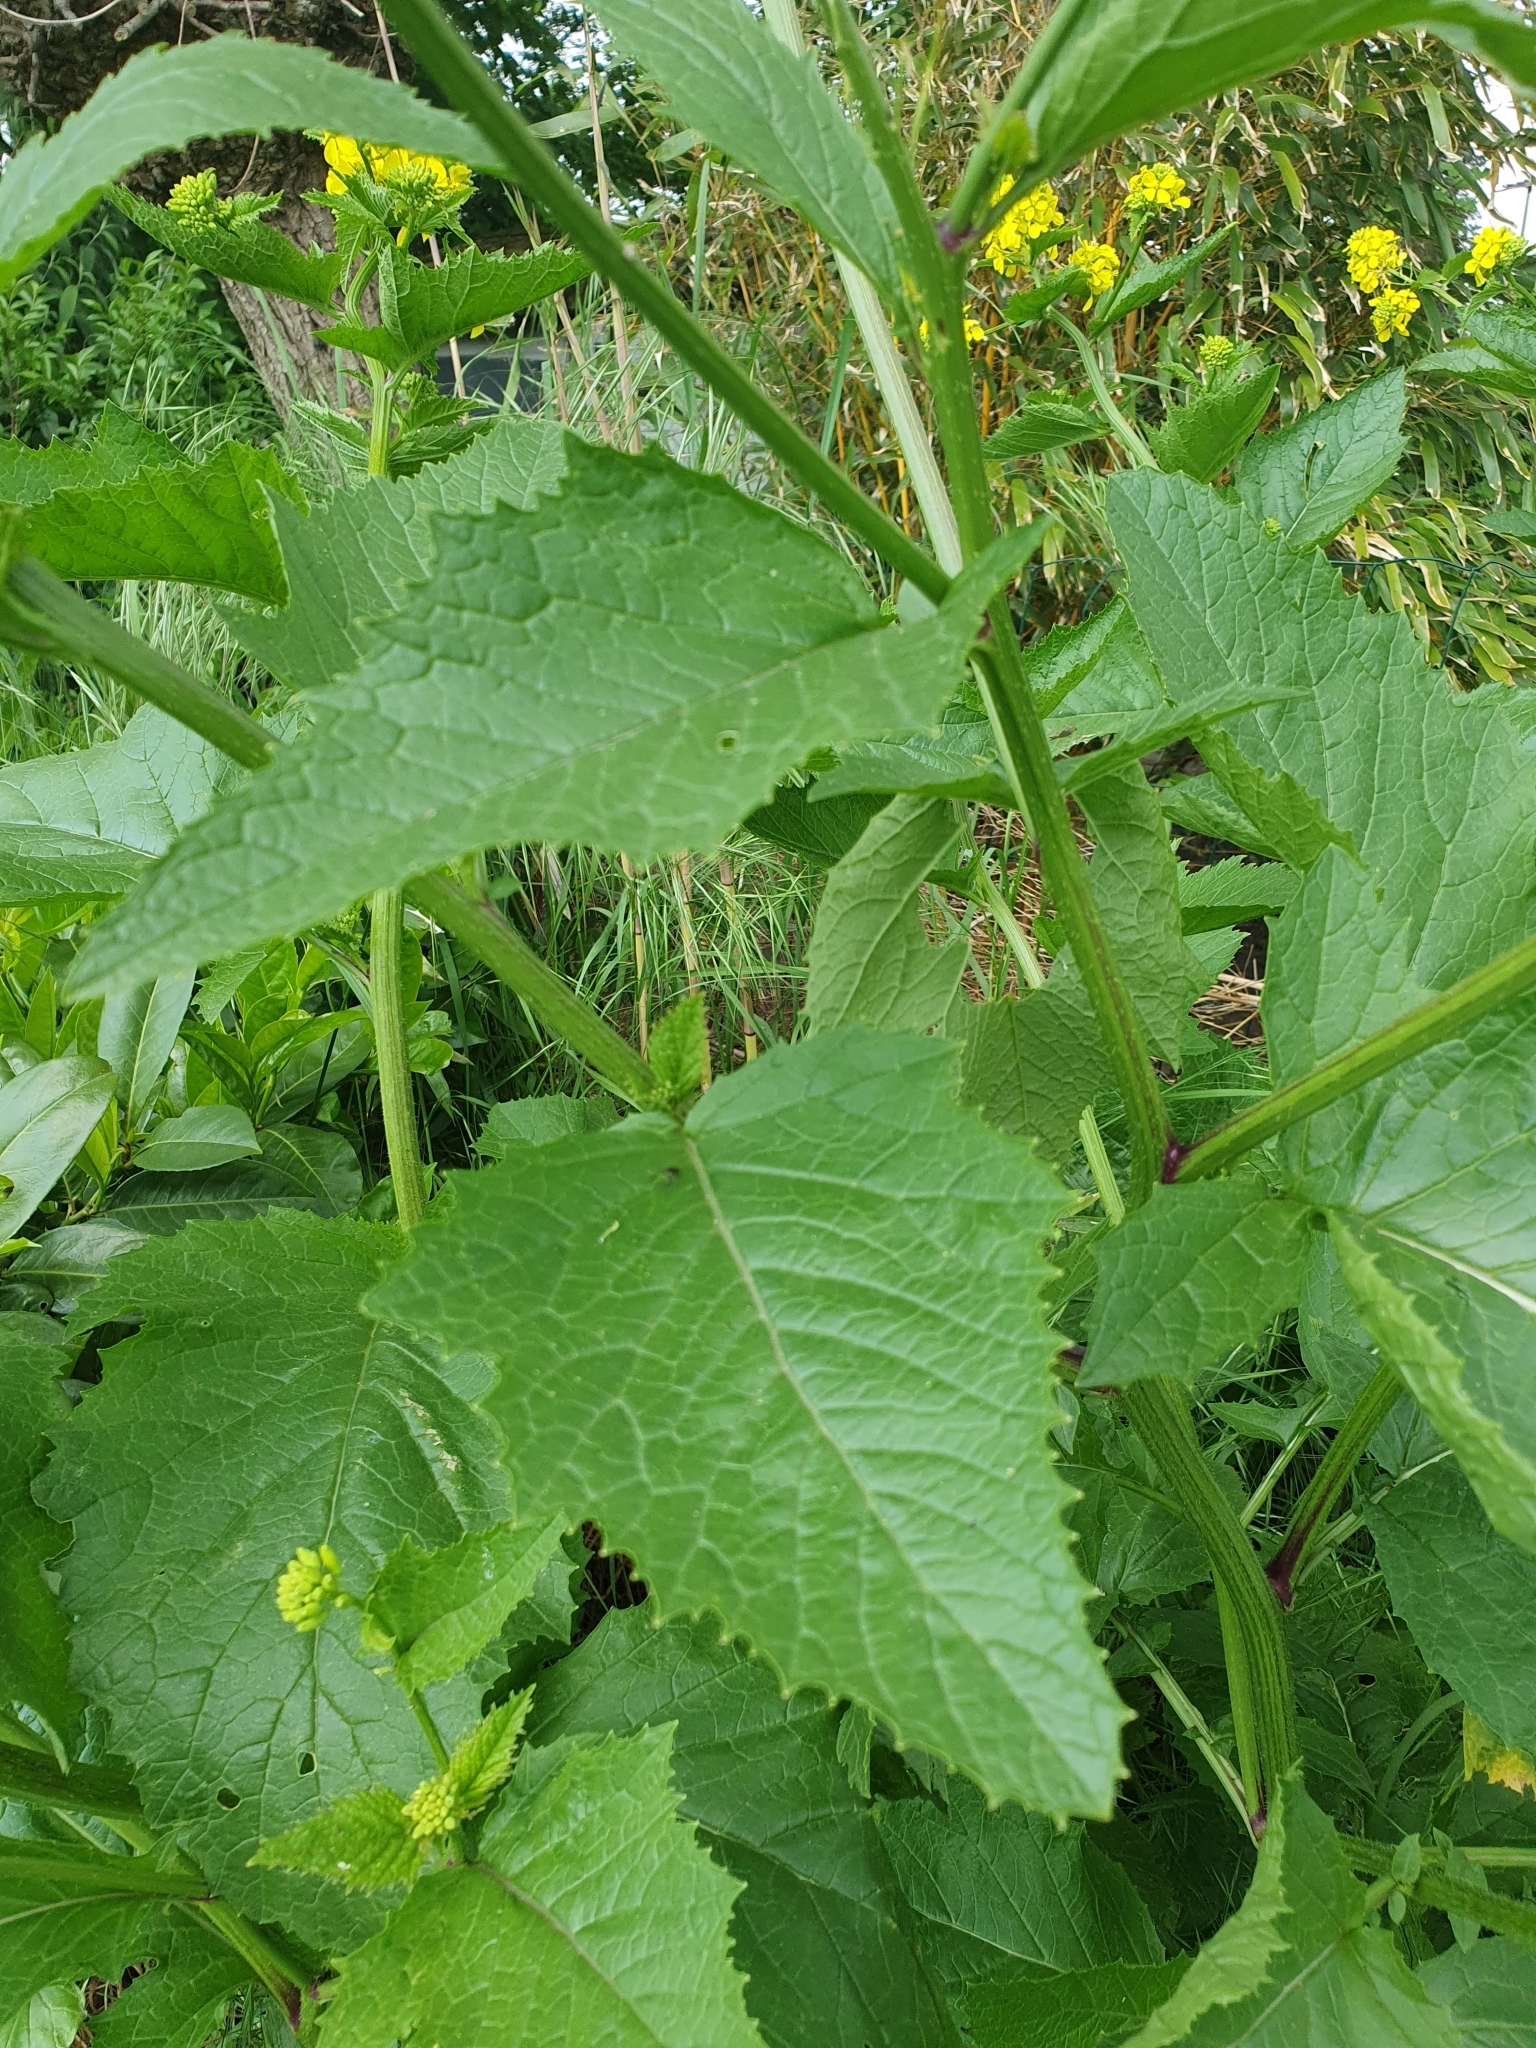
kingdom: Plantae
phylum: Tracheophyta
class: Magnoliopsida
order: Brassicales
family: Brassicaceae
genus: Sinapis
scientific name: Sinapis arvensis
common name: Charlock
